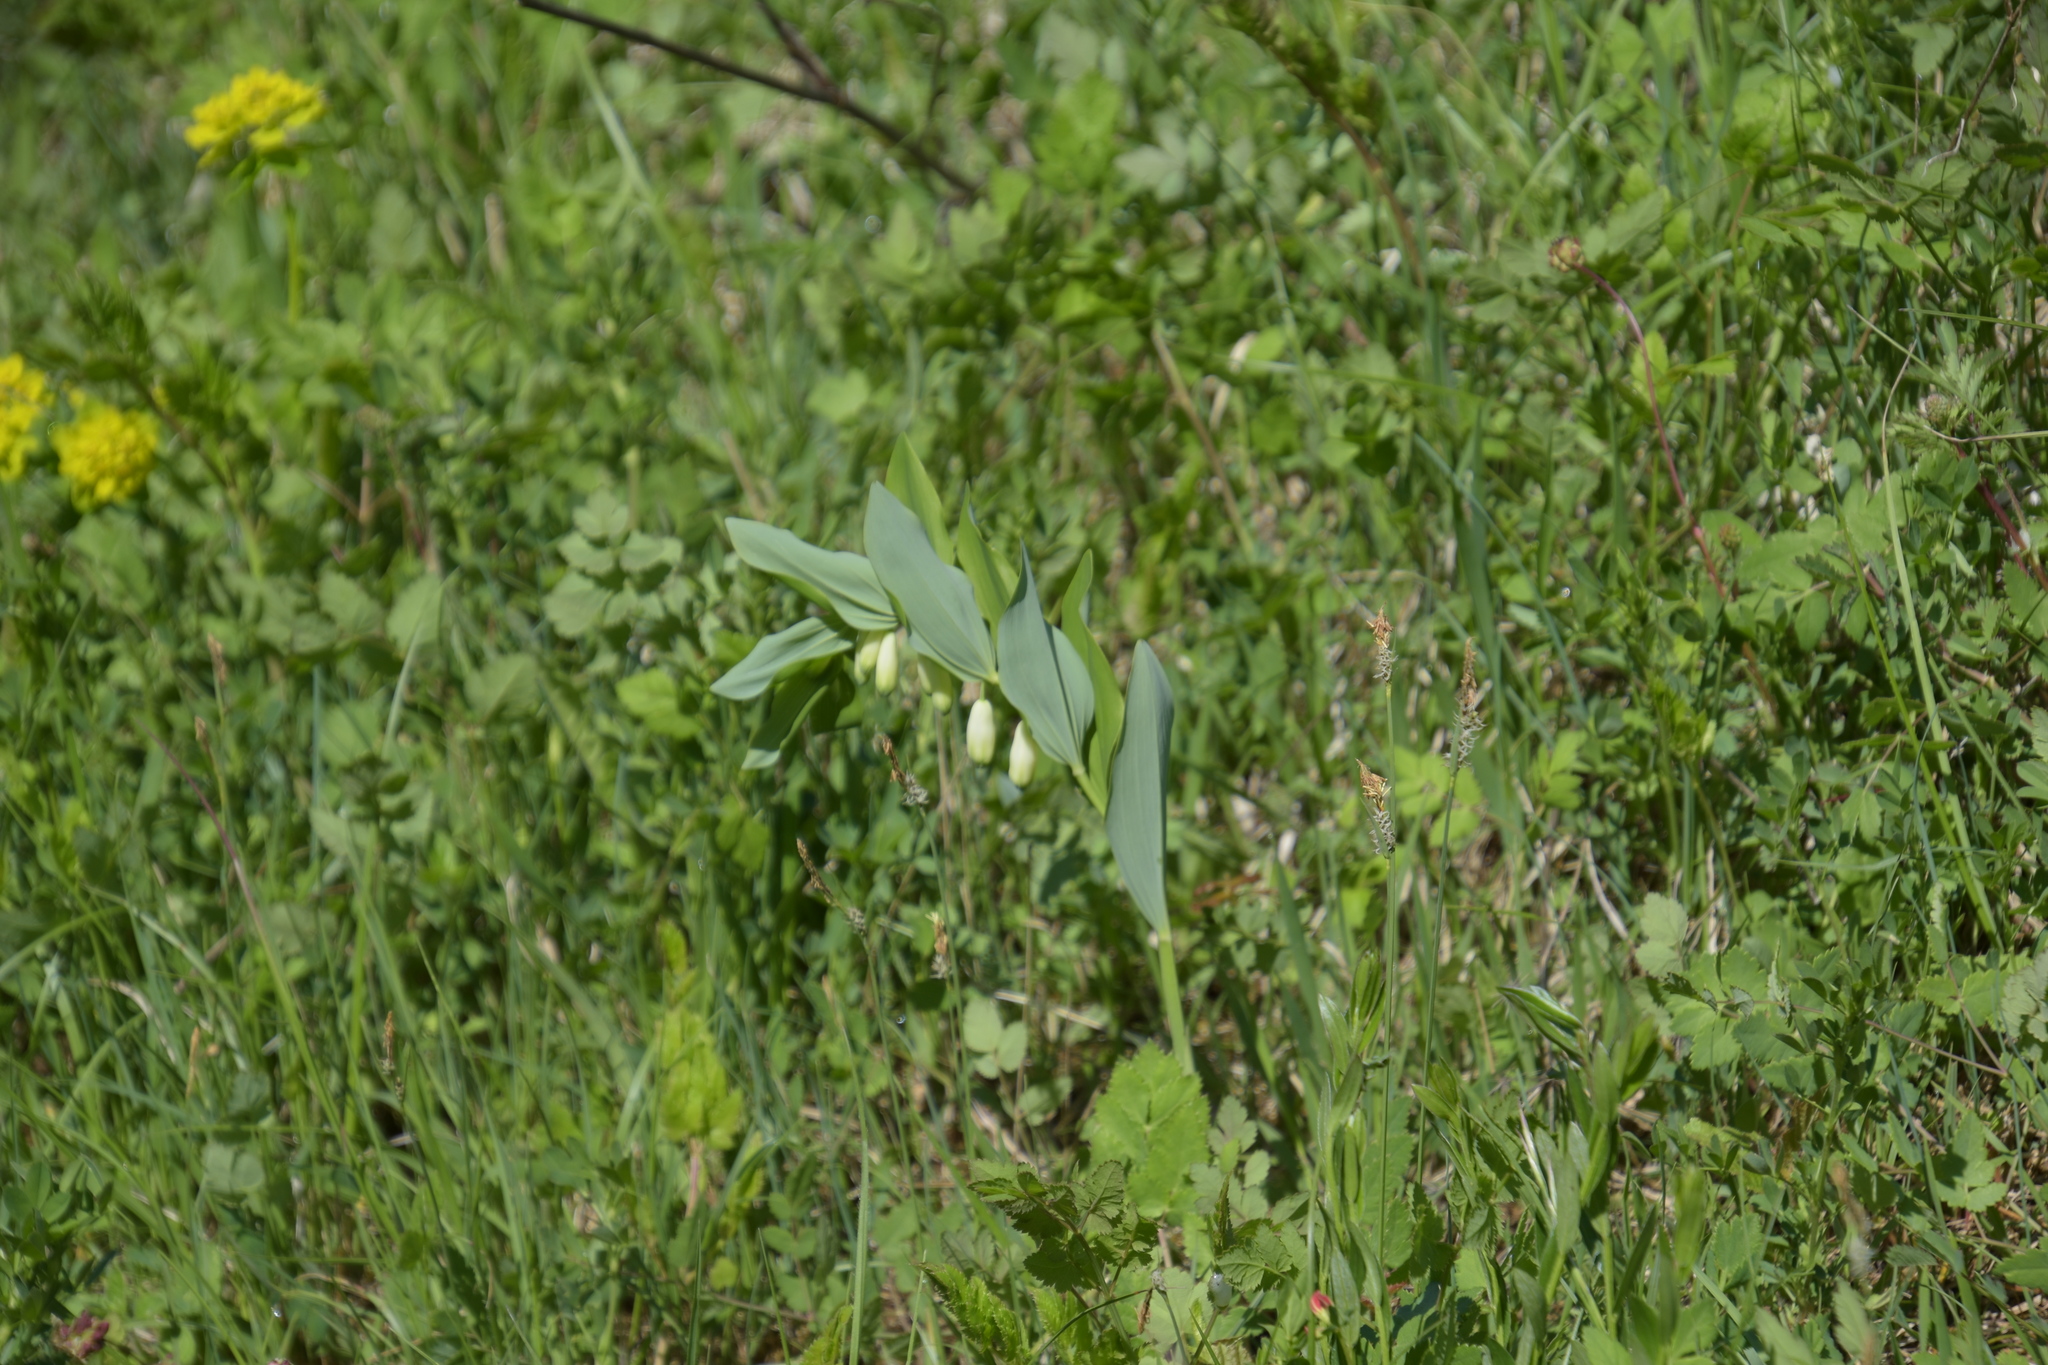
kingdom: Plantae
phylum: Tracheophyta
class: Liliopsida
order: Asparagales
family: Asparagaceae
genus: Polygonatum
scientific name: Polygonatum odoratum
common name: Angular solomon's-seal
